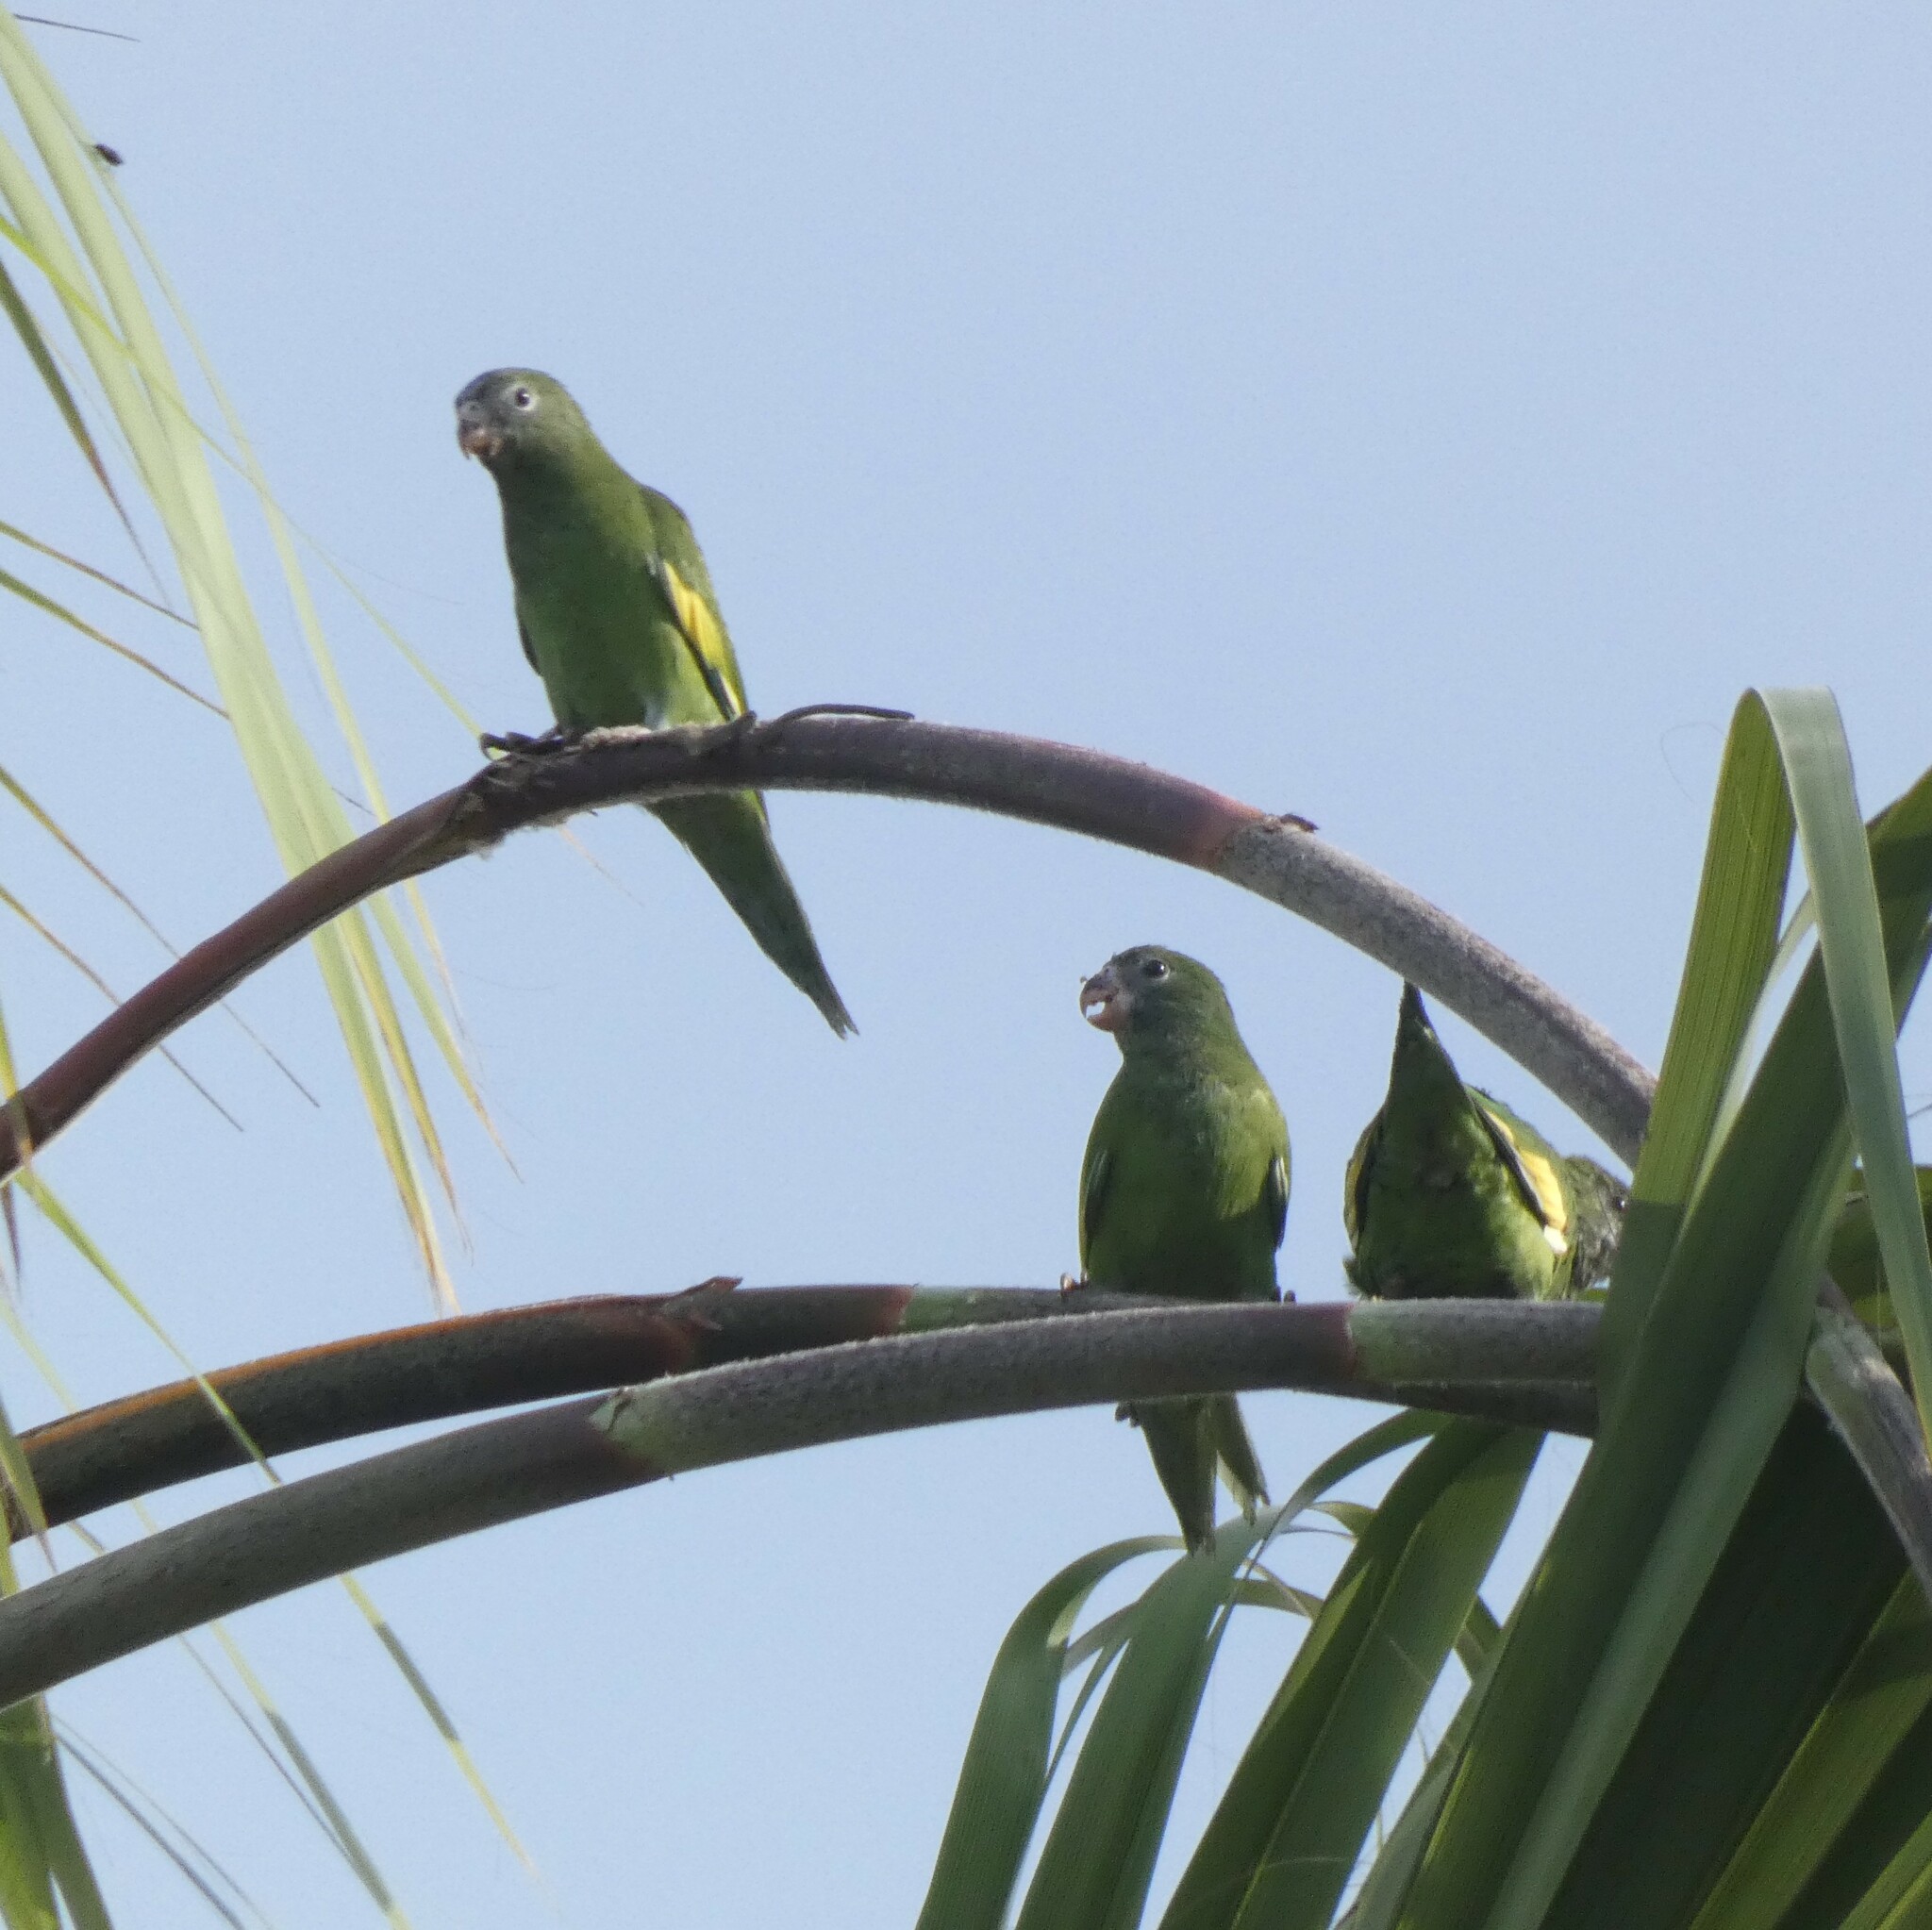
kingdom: Animalia
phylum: Chordata
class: Aves
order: Psittaciformes
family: Psittacidae
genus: Brotogeris
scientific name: Brotogeris versicolurus
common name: White-winged parakeet
